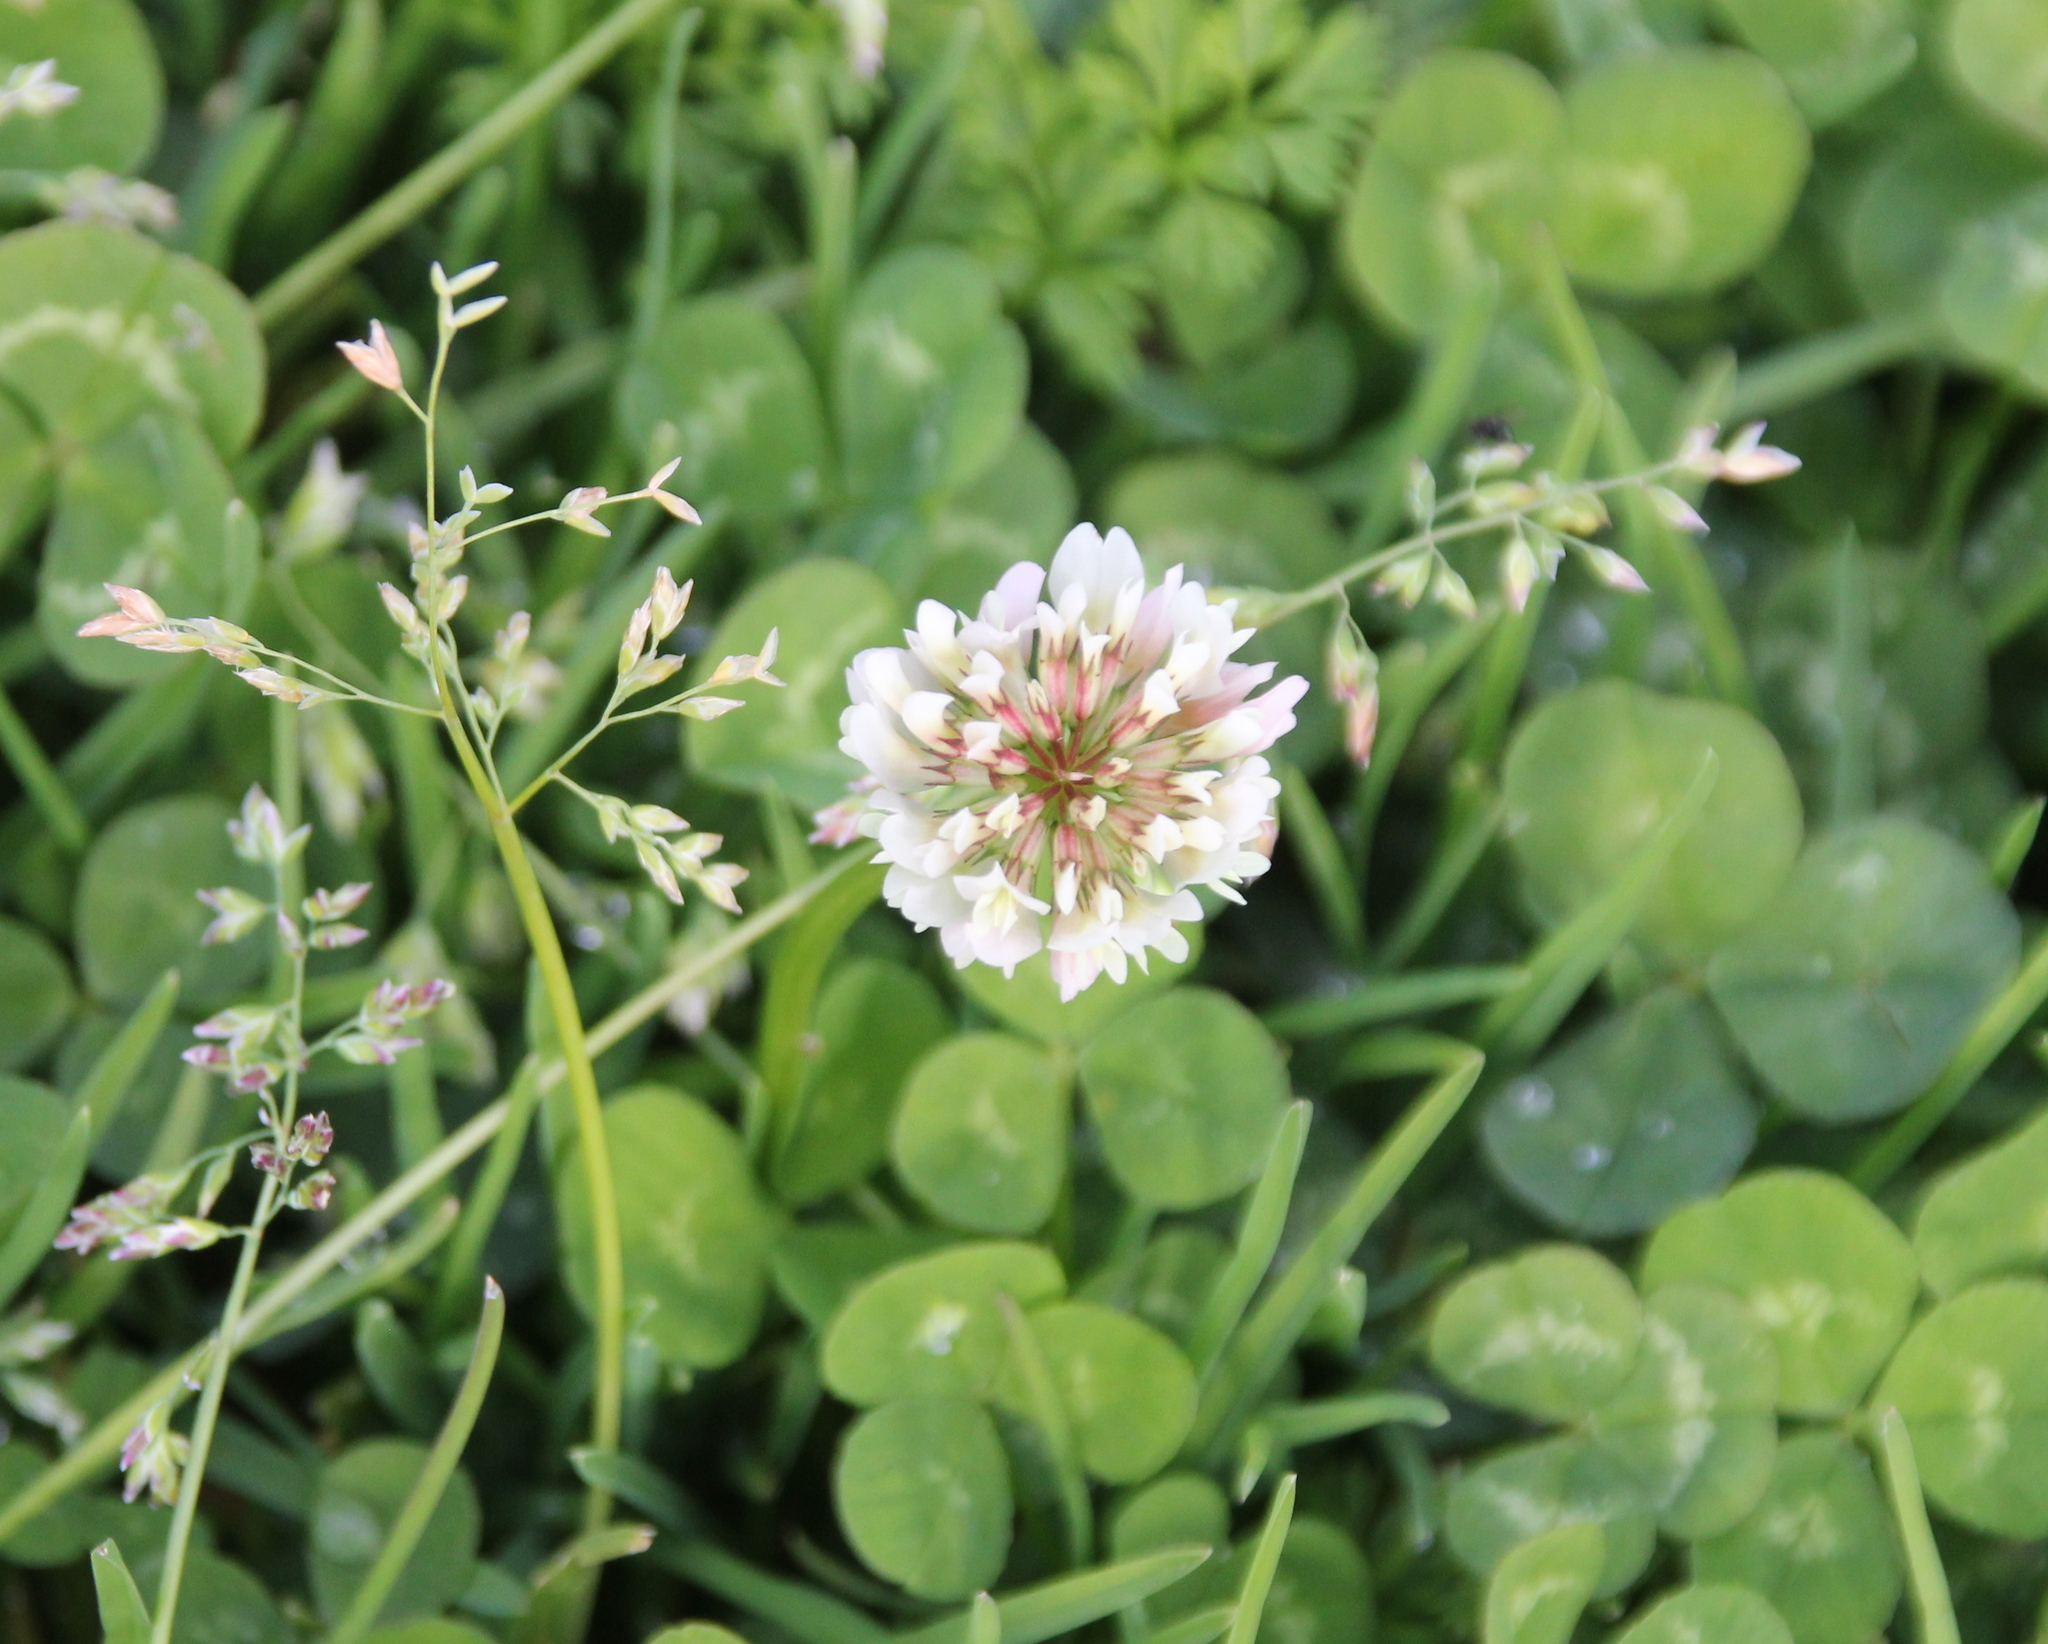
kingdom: Plantae
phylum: Tracheophyta
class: Magnoliopsida
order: Fabales
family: Fabaceae
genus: Trifolium
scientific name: Trifolium repens
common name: White clover
